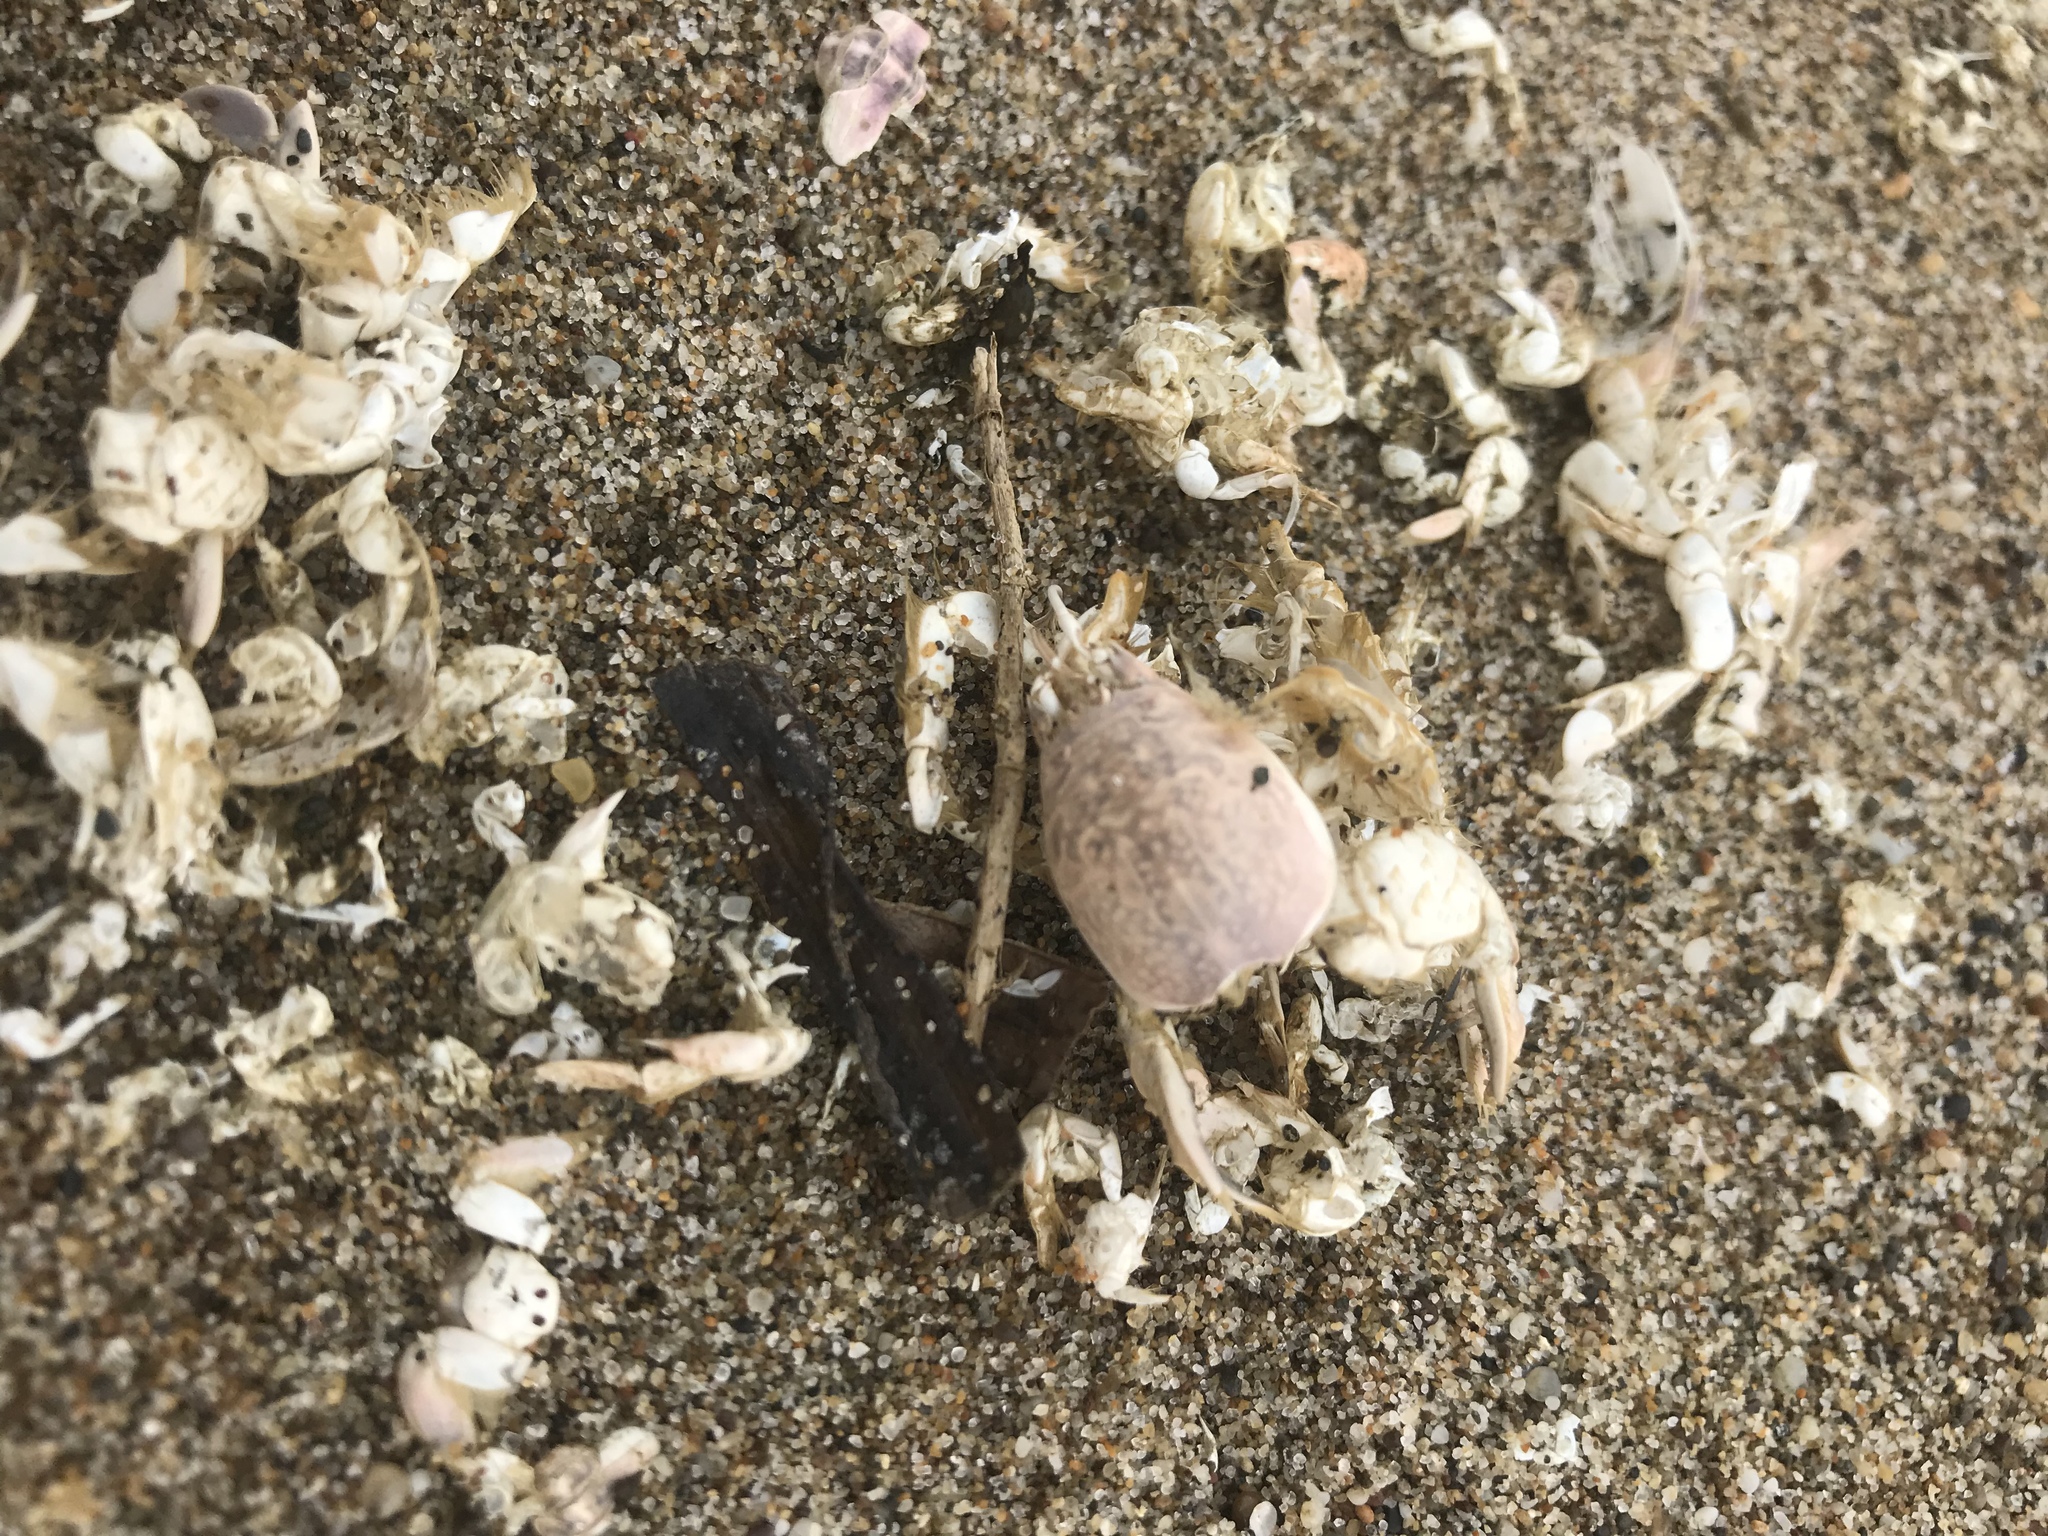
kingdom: Animalia
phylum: Arthropoda
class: Malacostraca
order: Decapoda
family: Hippidae
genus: Emerita
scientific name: Emerita analoga
